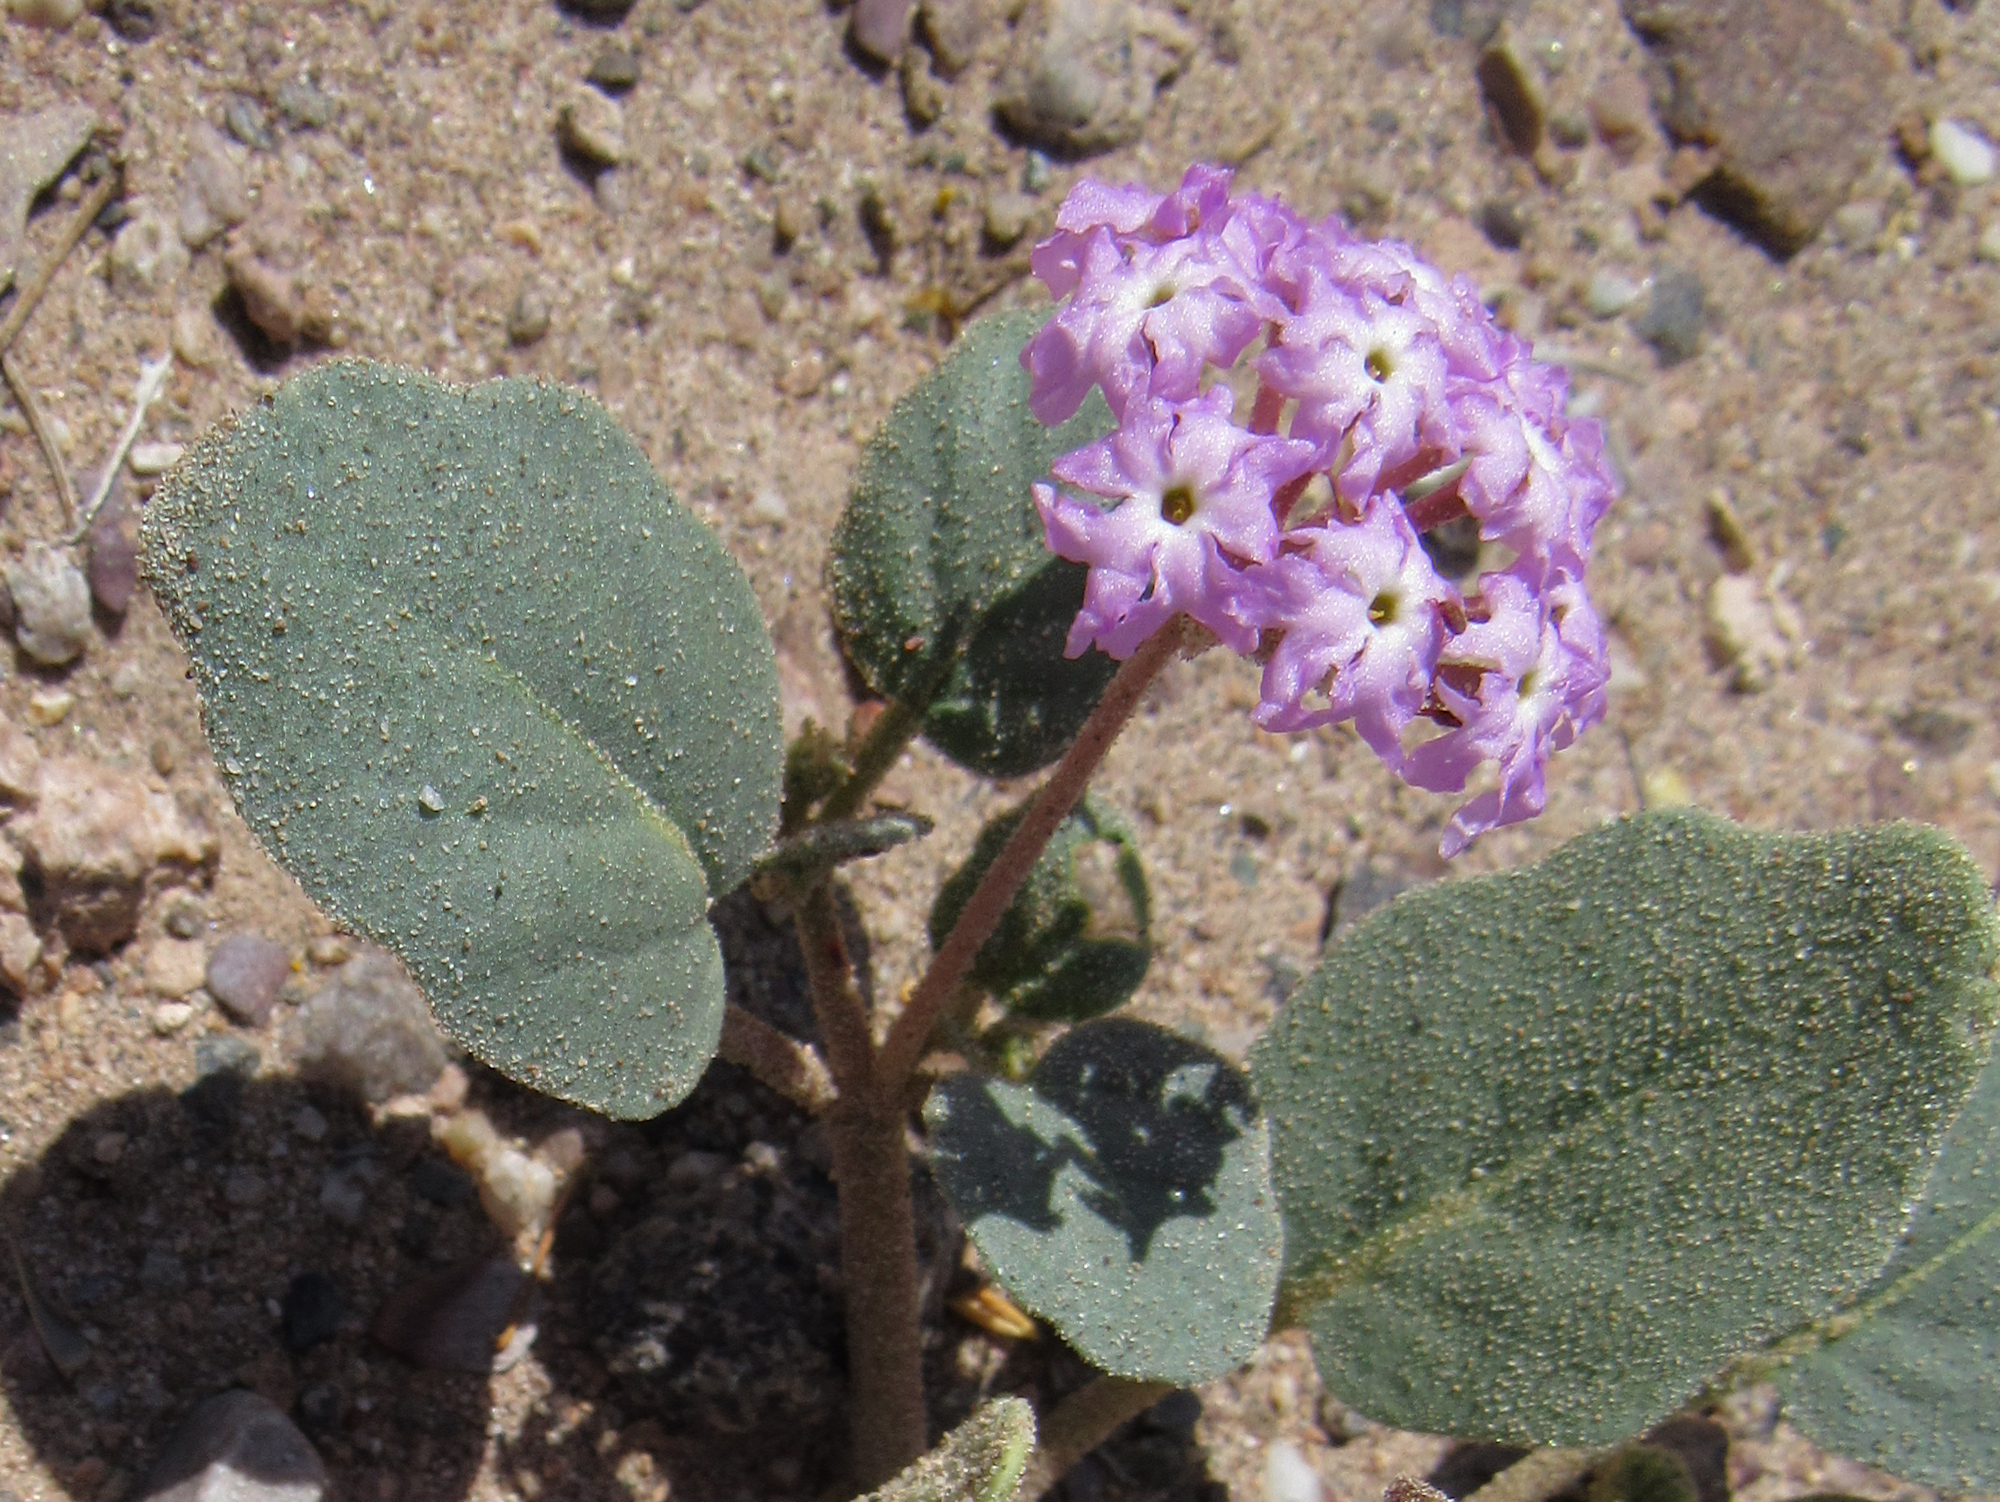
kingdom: Plantae
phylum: Tracheophyta
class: Magnoliopsida
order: Caryophyllales
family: Nyctaginaceae
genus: Abronia
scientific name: Abronia villosa
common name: Desert sand-verbena
